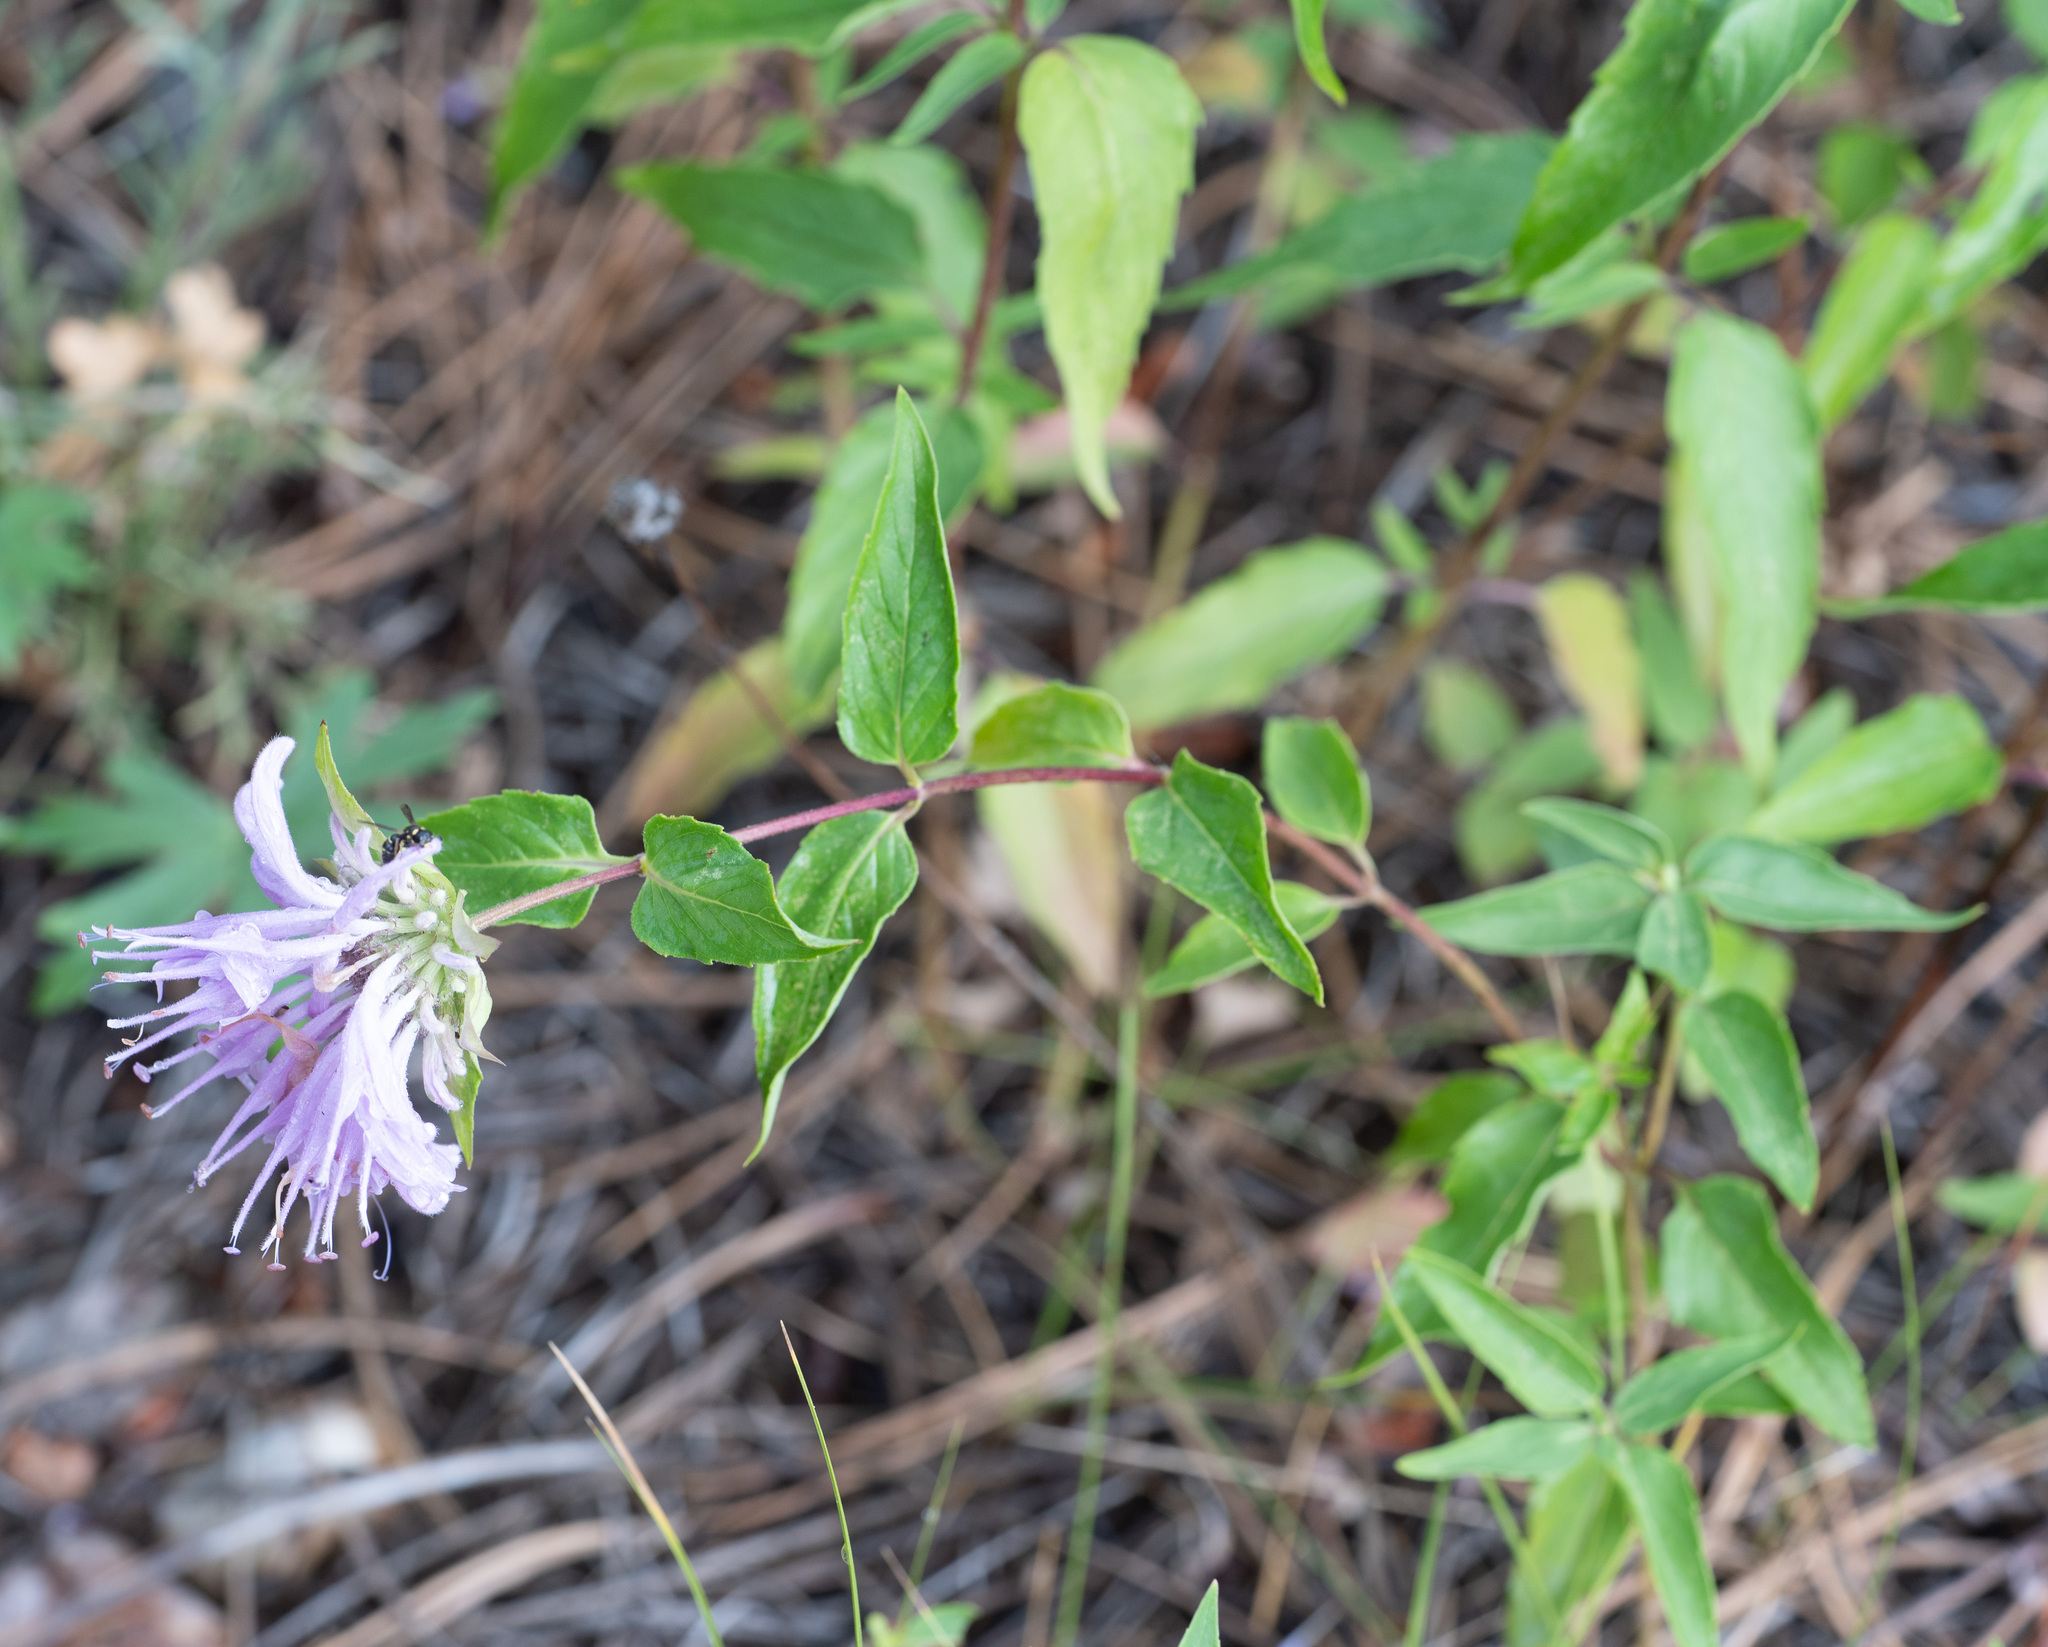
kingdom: Plantae
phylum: Tracheophyta
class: Magnoliopsida
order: Lamiales
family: Lamiaceae
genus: Monarda
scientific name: Monarda fistulosa
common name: Purple beebalm
